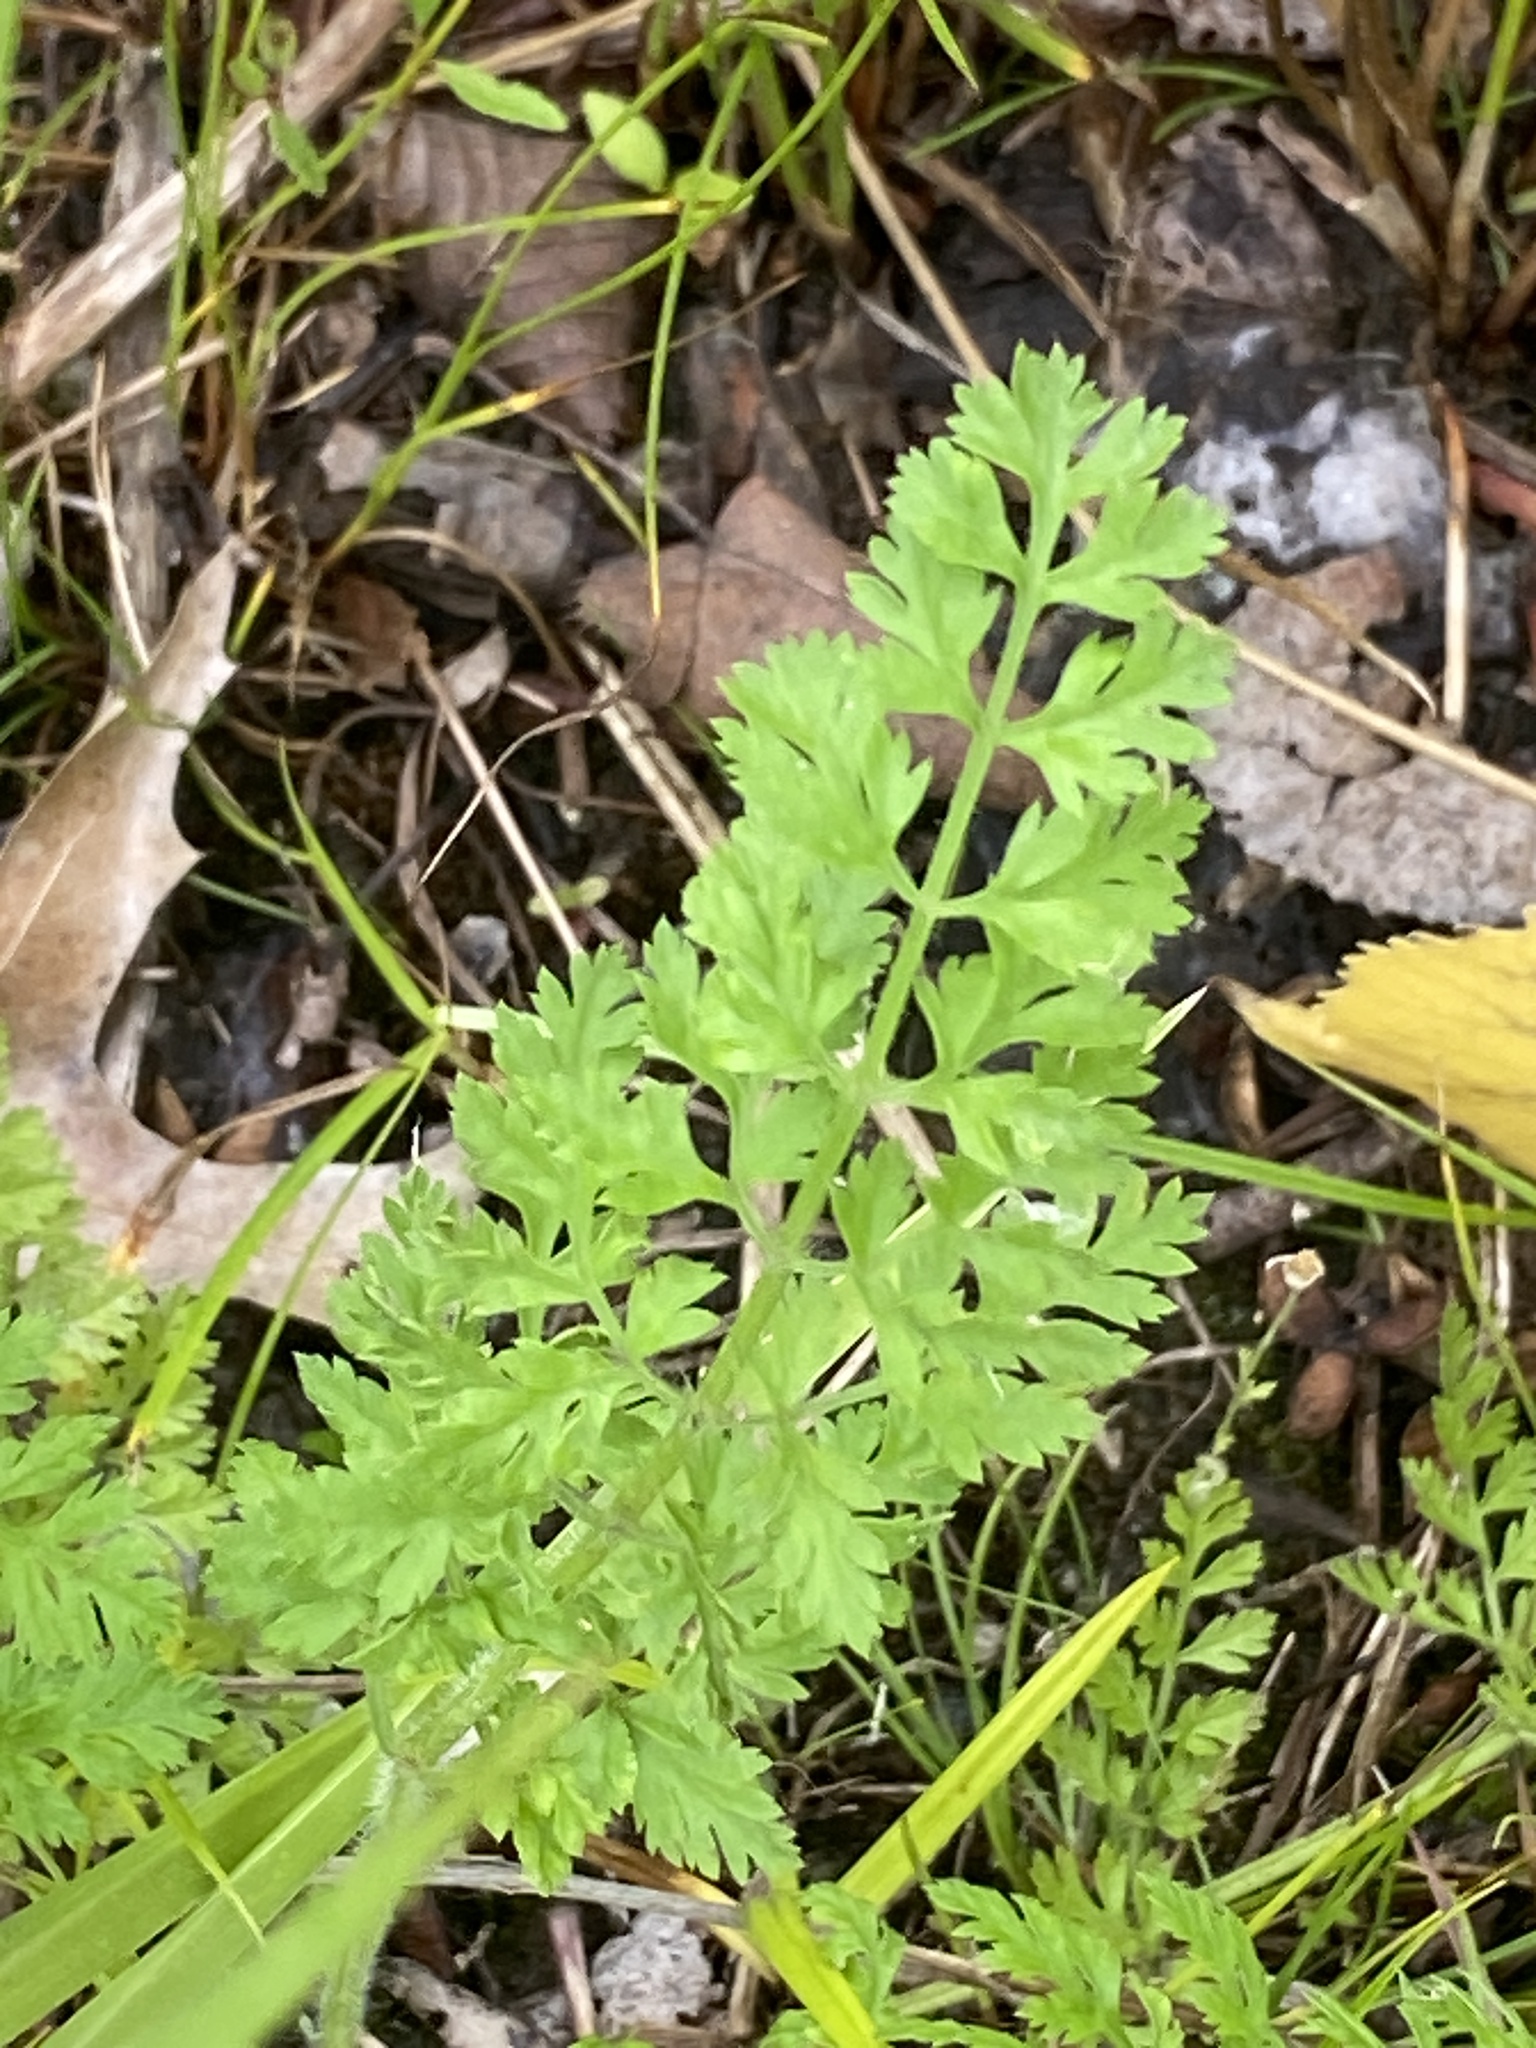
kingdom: Plantae
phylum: Tracheophyta
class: Magnoliopsida
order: Apiales
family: Apiaceae
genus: Daucus
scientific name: Daucus carota
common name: Wild carrot
